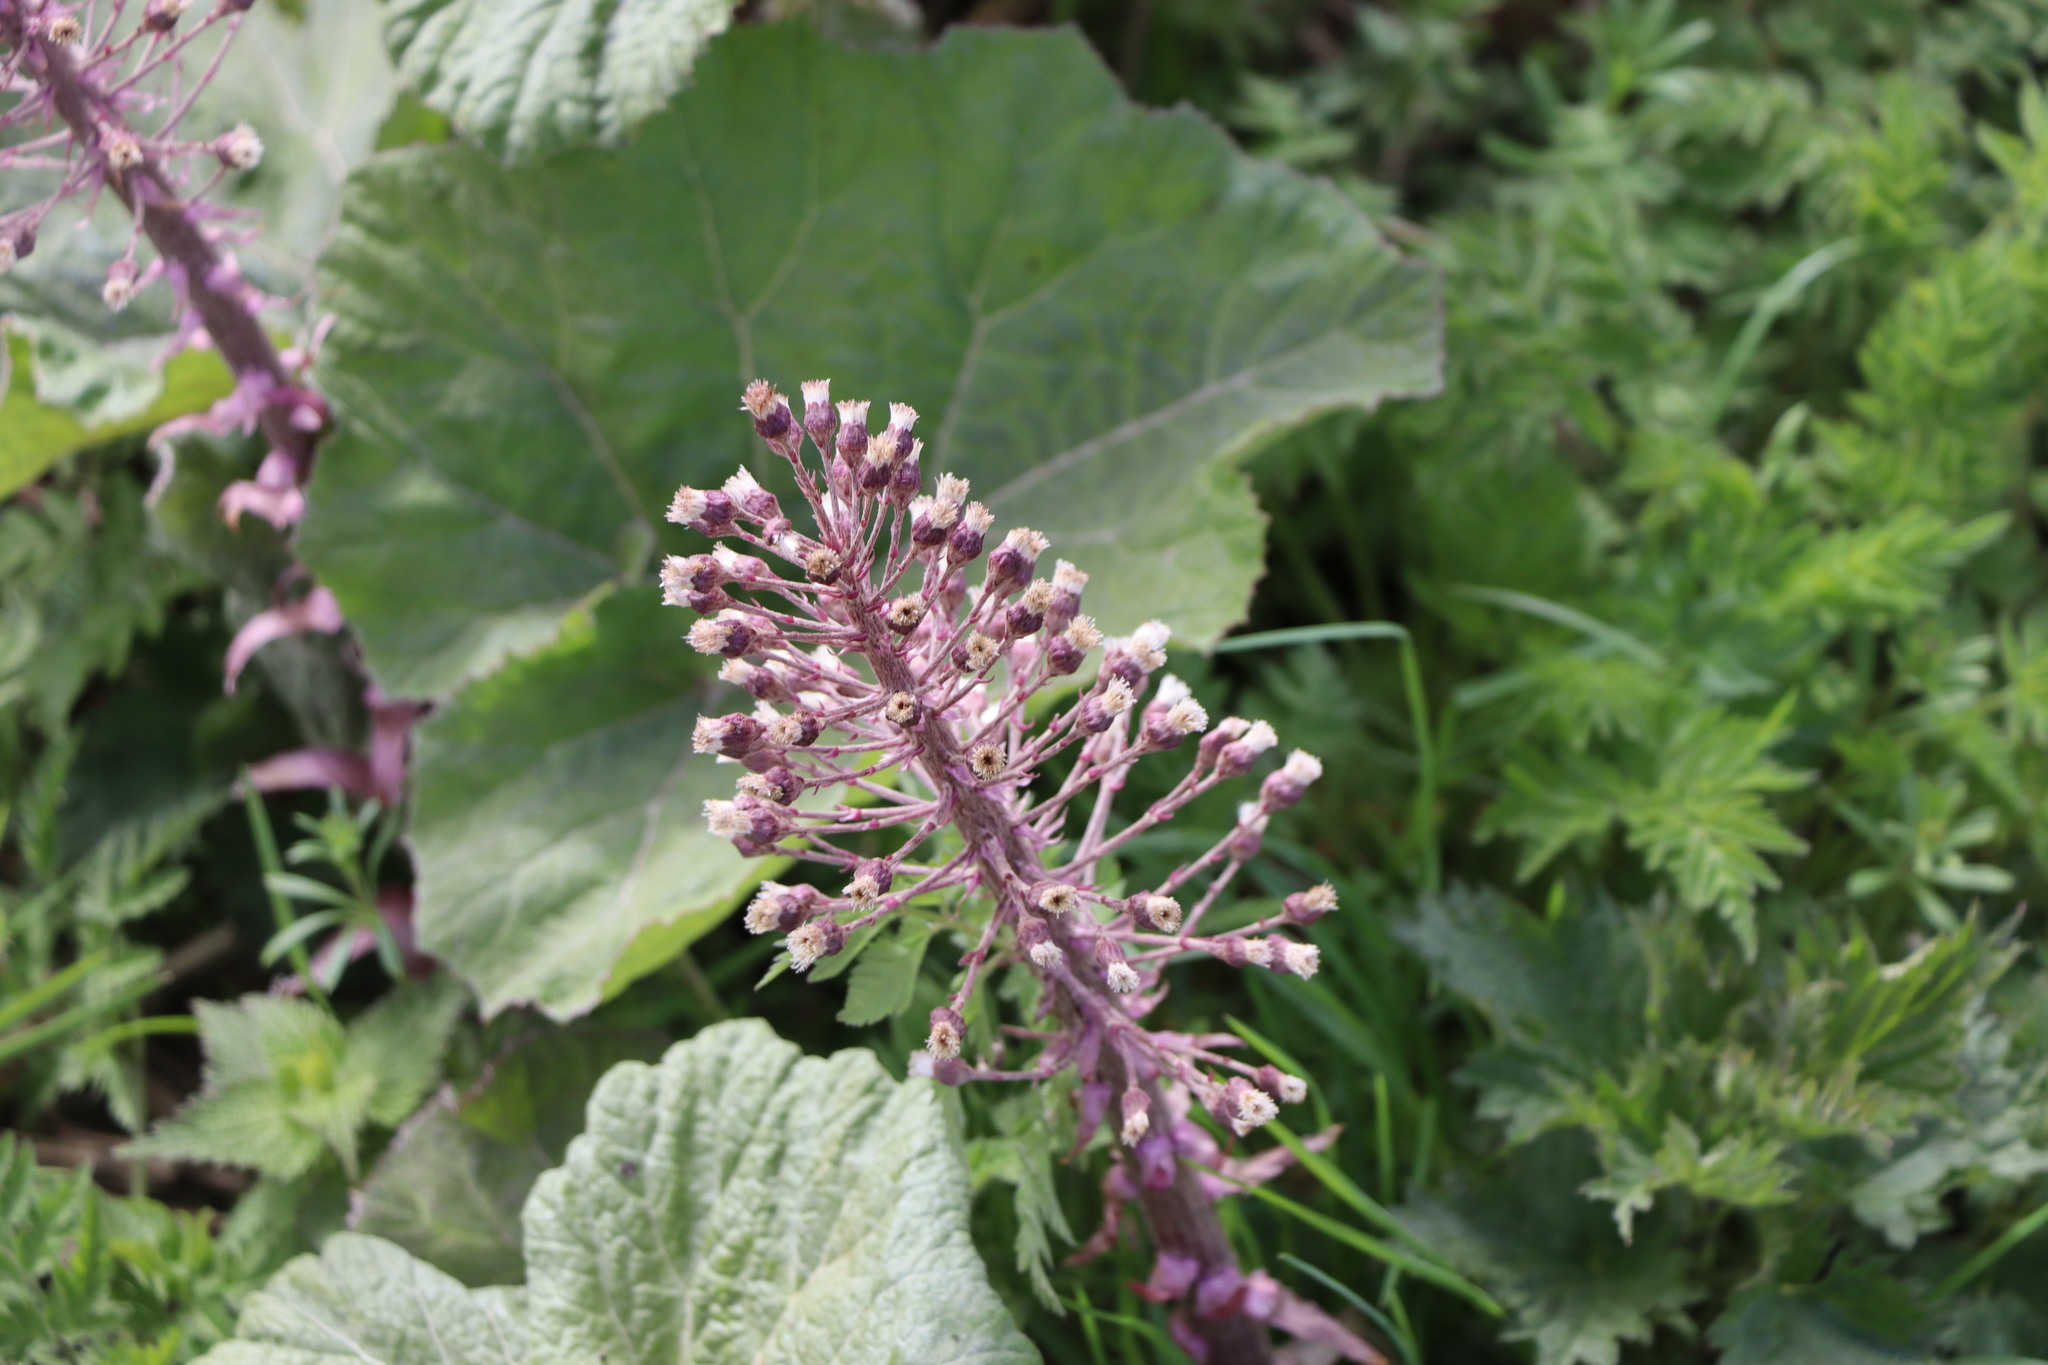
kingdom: Plantae
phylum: Tracheophyta
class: Magnoliopsida
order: Asterales
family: Asteraceae
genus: Petasites
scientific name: Petasites hybridus
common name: Butterbur
